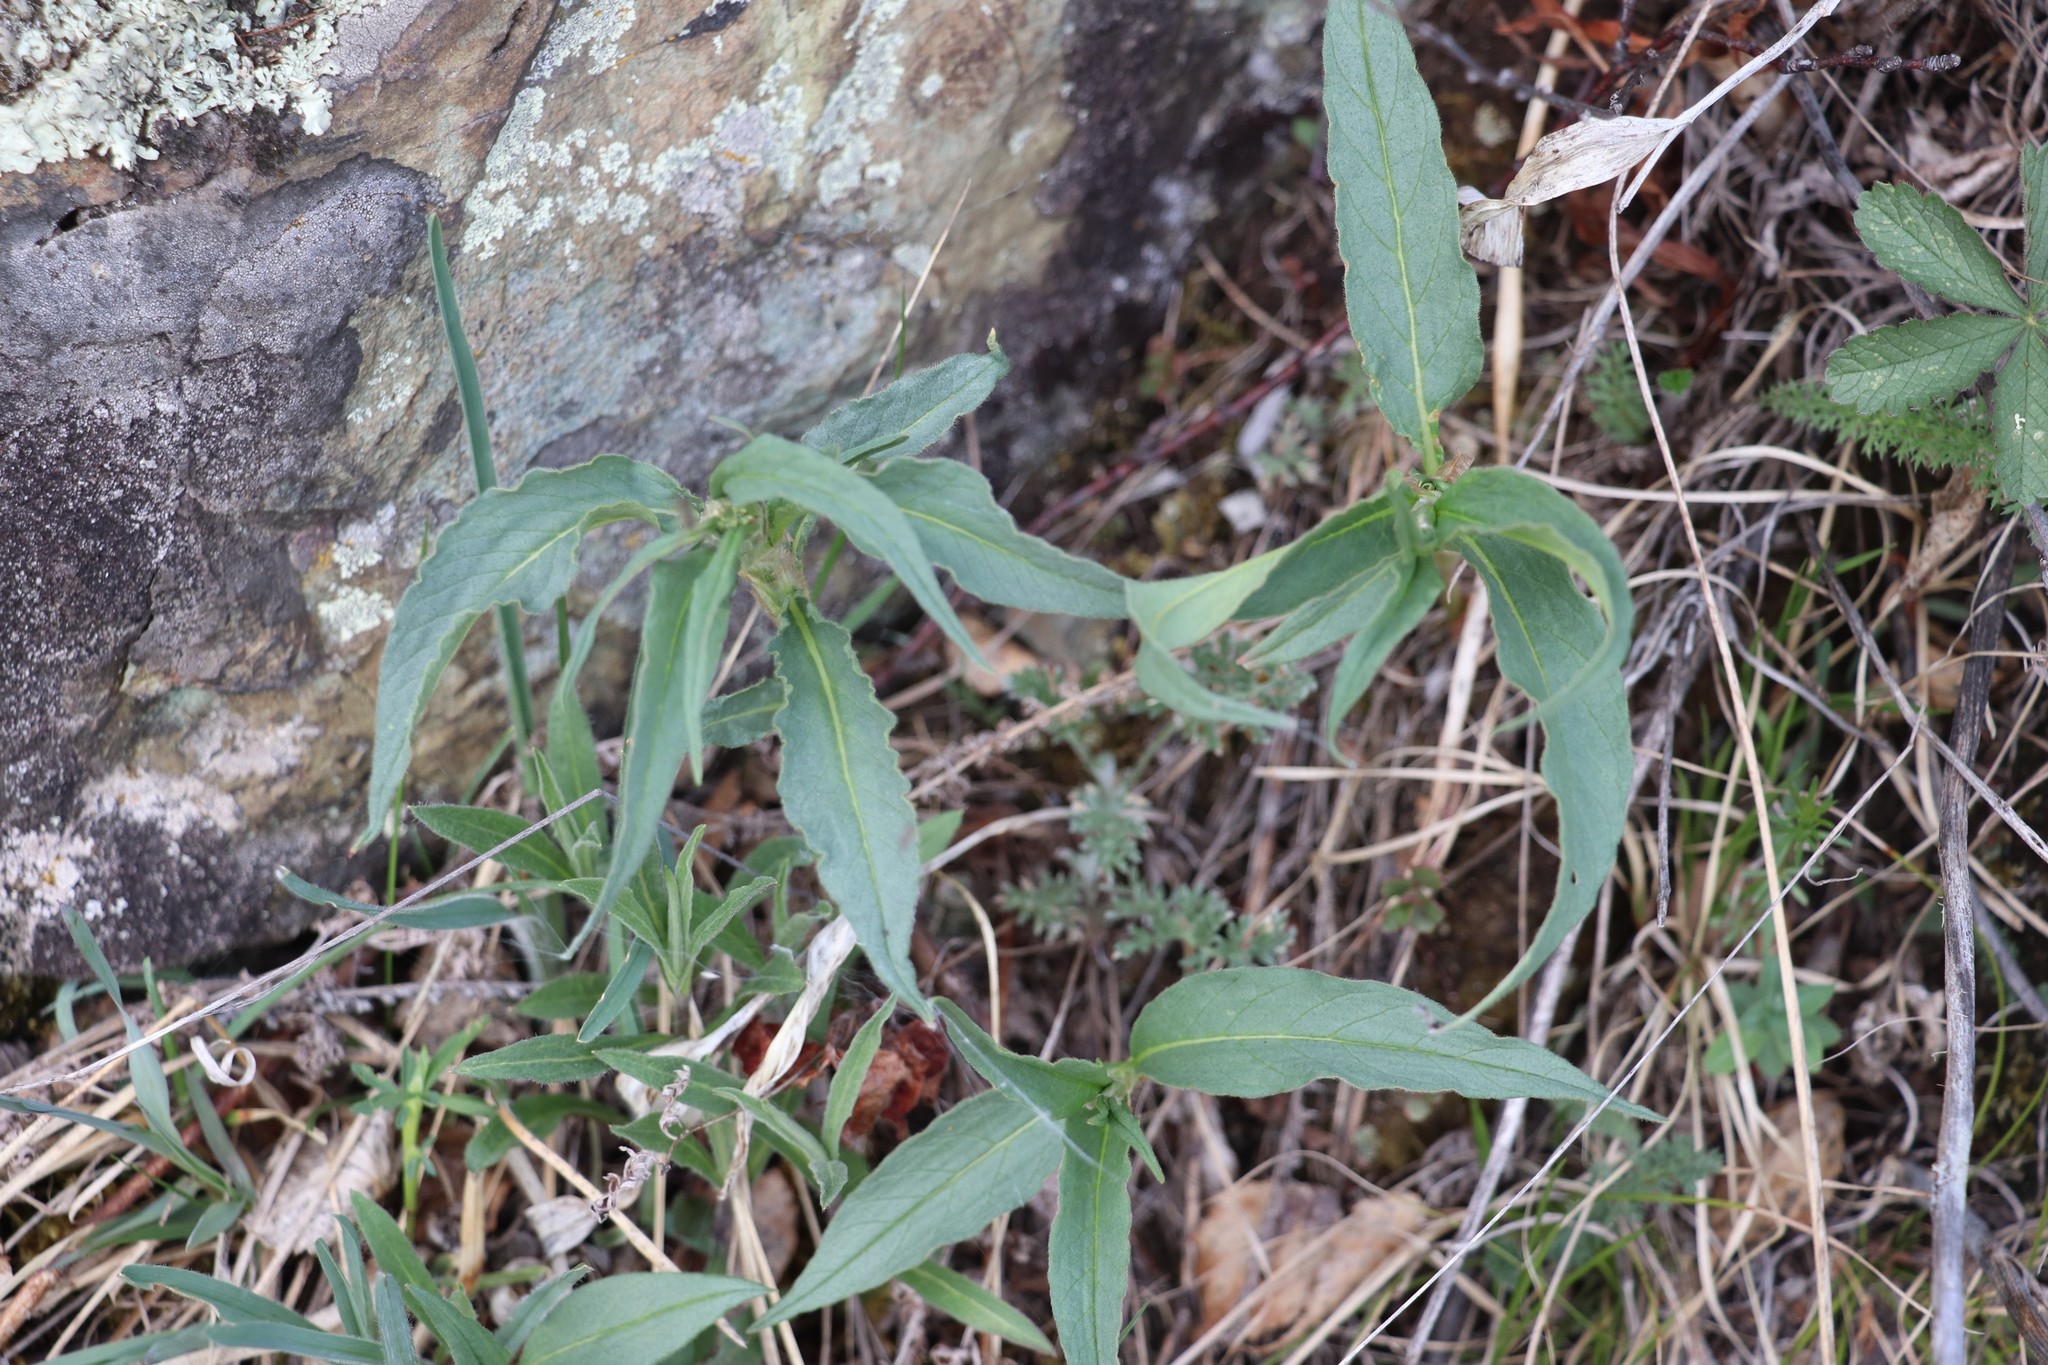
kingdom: Plantae
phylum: Tracheophyta
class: Magnoliopsida
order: Caryophyllales
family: Polygonaceae
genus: Koenigia
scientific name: Koenigia alpina
